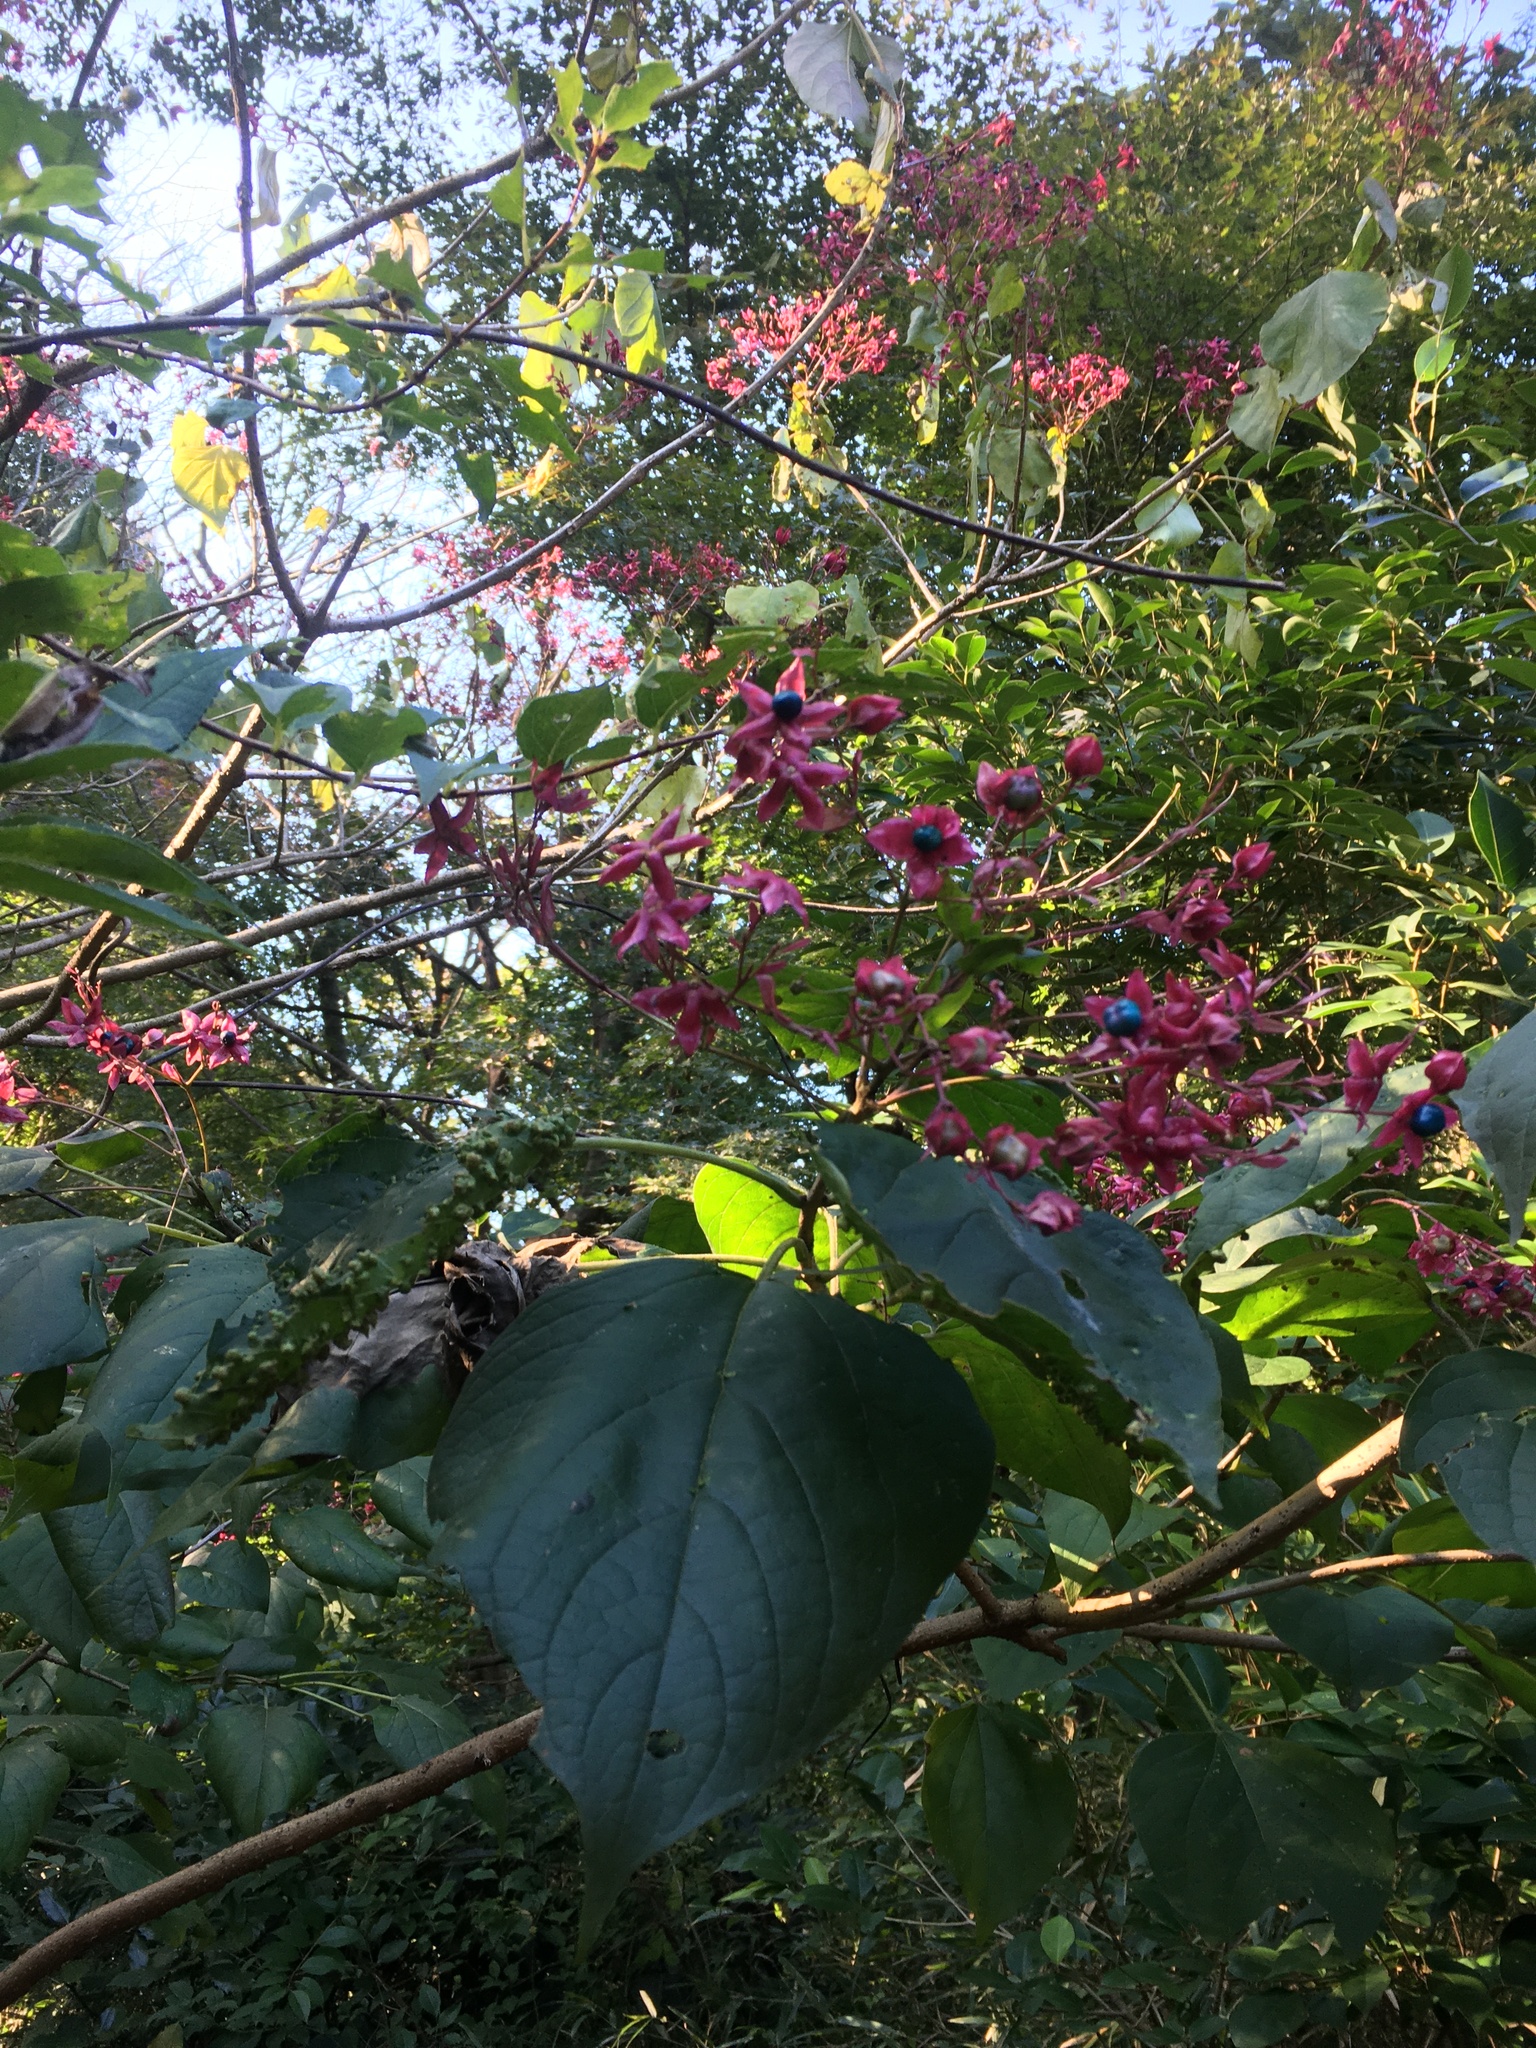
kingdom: Plantae
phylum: Tracheophyta
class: Magnoliopsida
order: Lamiales
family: Lamiaceae
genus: Clerodendrum
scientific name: Clerodendrum trichotomum
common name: Harlequin glorybower
